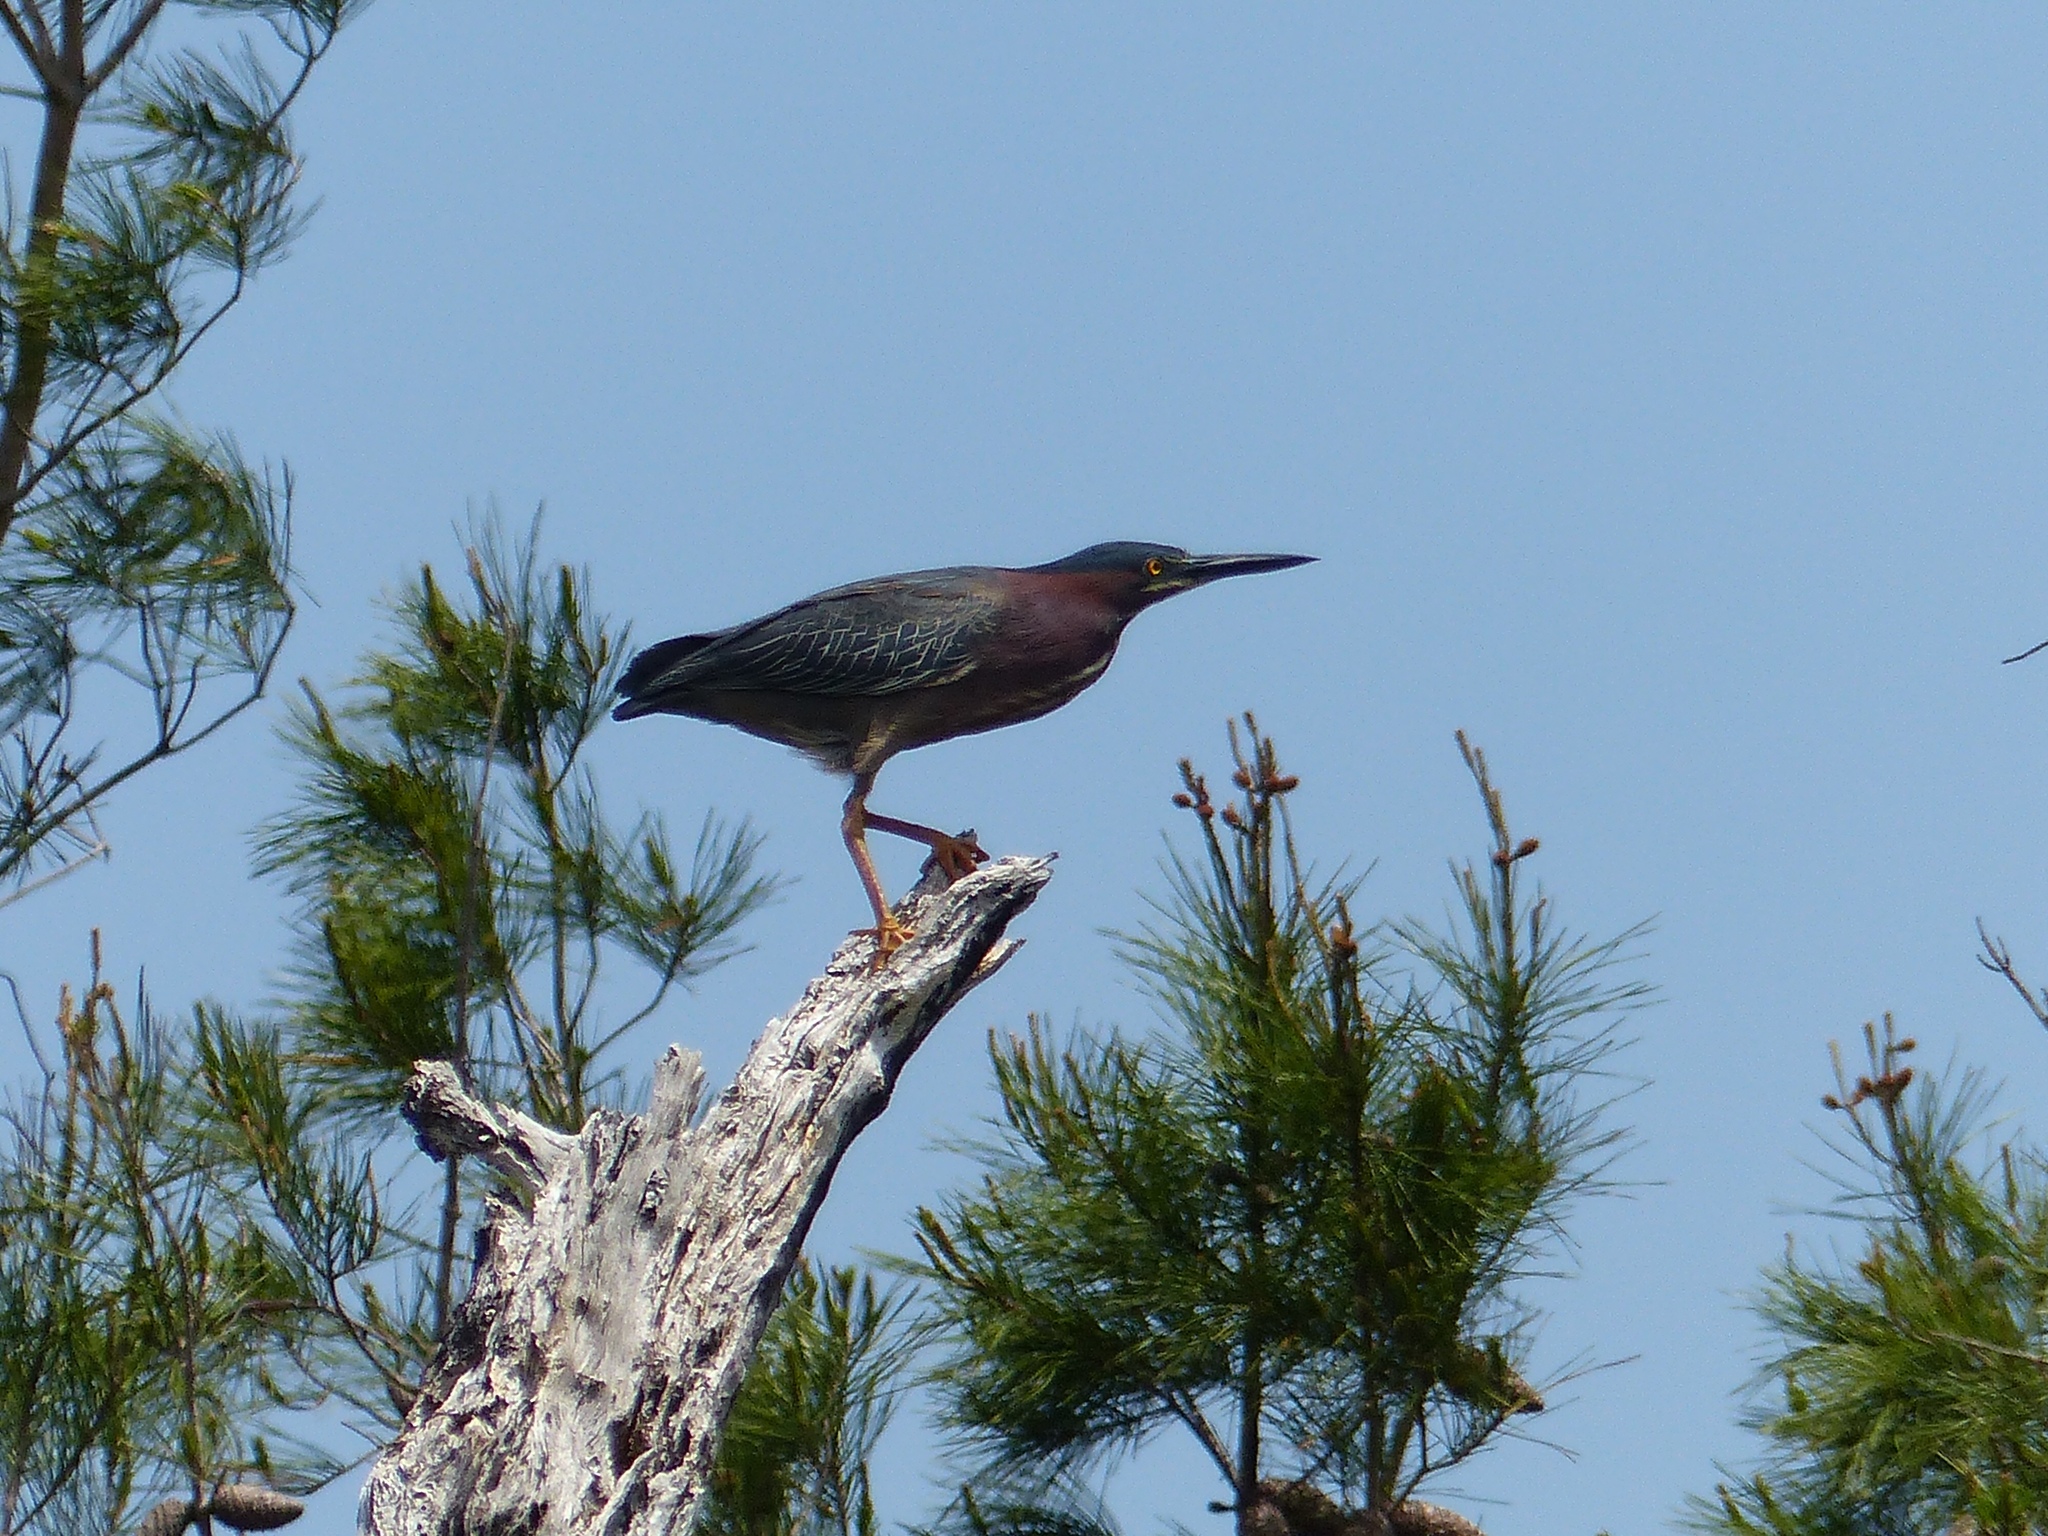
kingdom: Animalia
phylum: Chordata
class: Aves
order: Pelecaniformes
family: Ardeidae
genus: Butorides
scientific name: Butorides virescens
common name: Green heron
